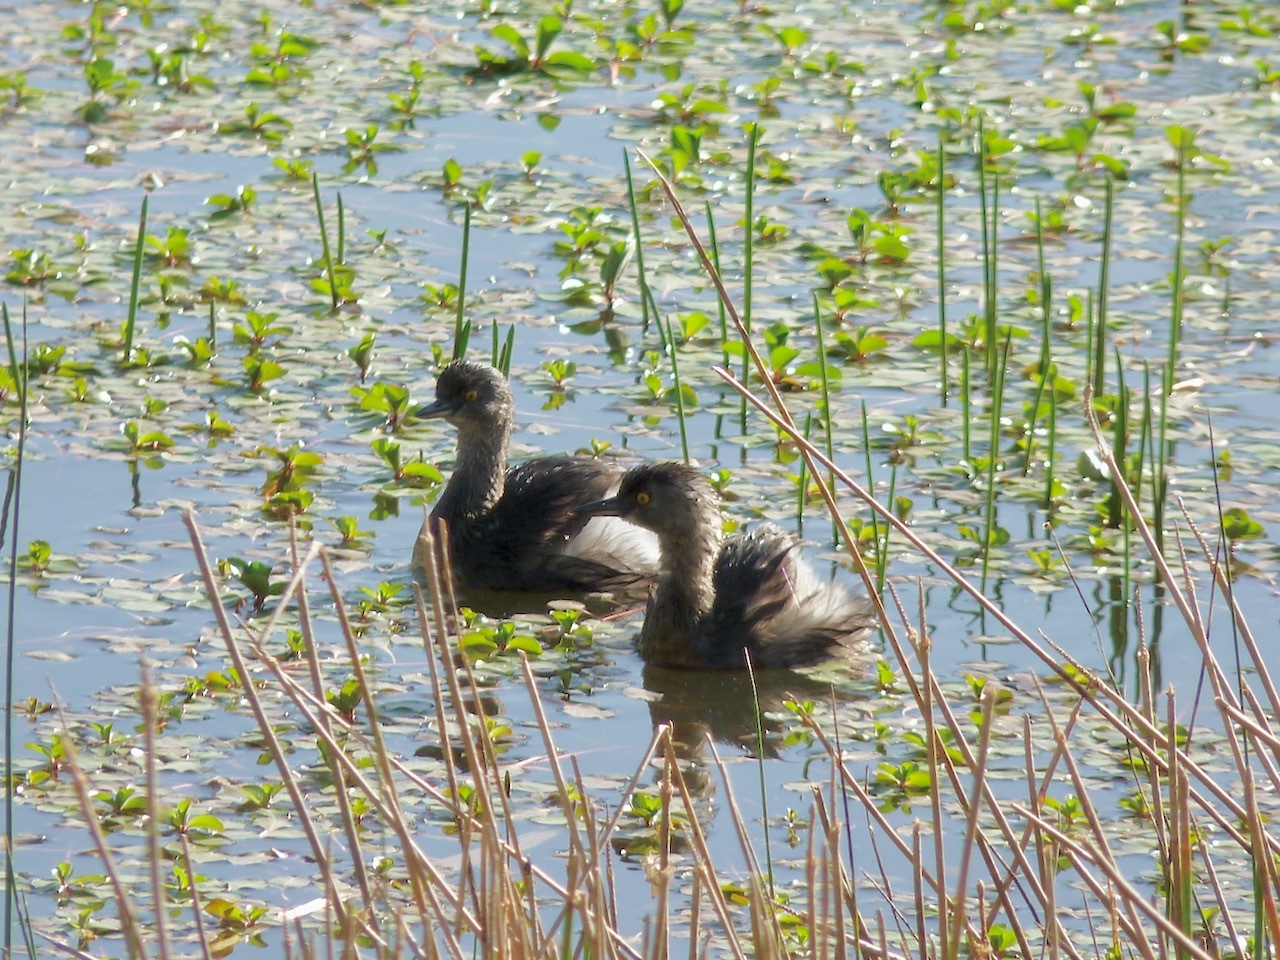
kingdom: Animalia
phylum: Chordata
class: Aves
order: Podicipediformes
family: Podicipedidae
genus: Tachybaptus
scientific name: Tachybaptus dominicus
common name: Least grebe
